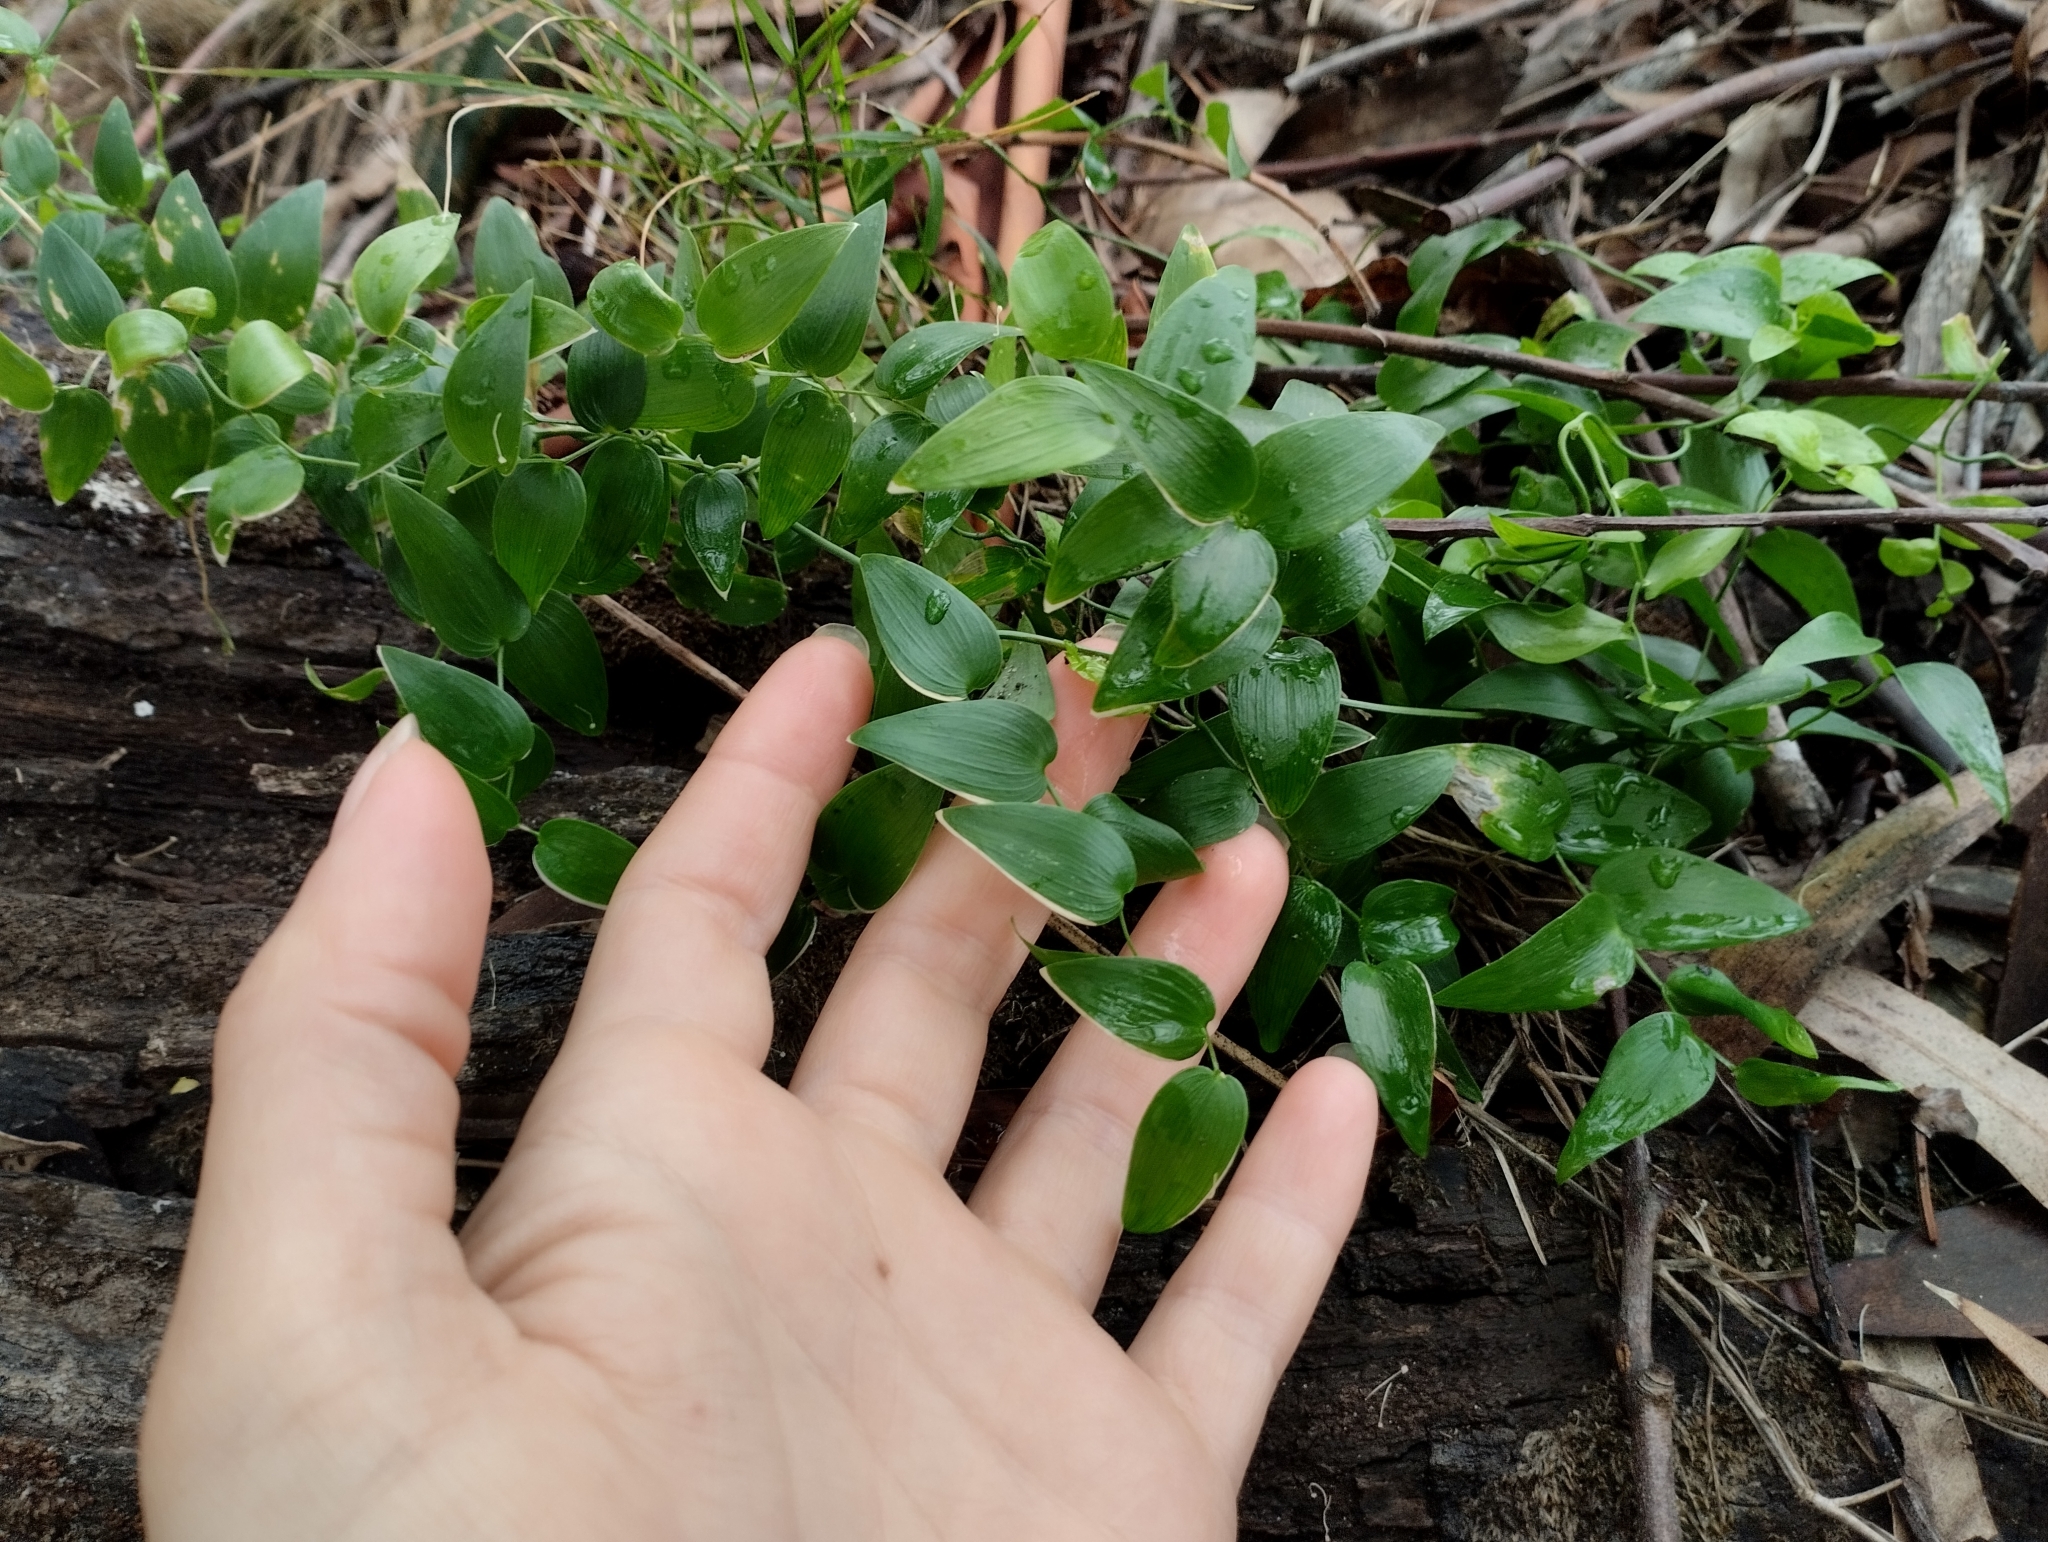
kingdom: Plantae
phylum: Tracheophyta
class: Liliopsida
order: Asparagales
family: Asparagaceae
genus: Asparagus
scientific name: Asparagus asparagoides
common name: African asparagus fern
